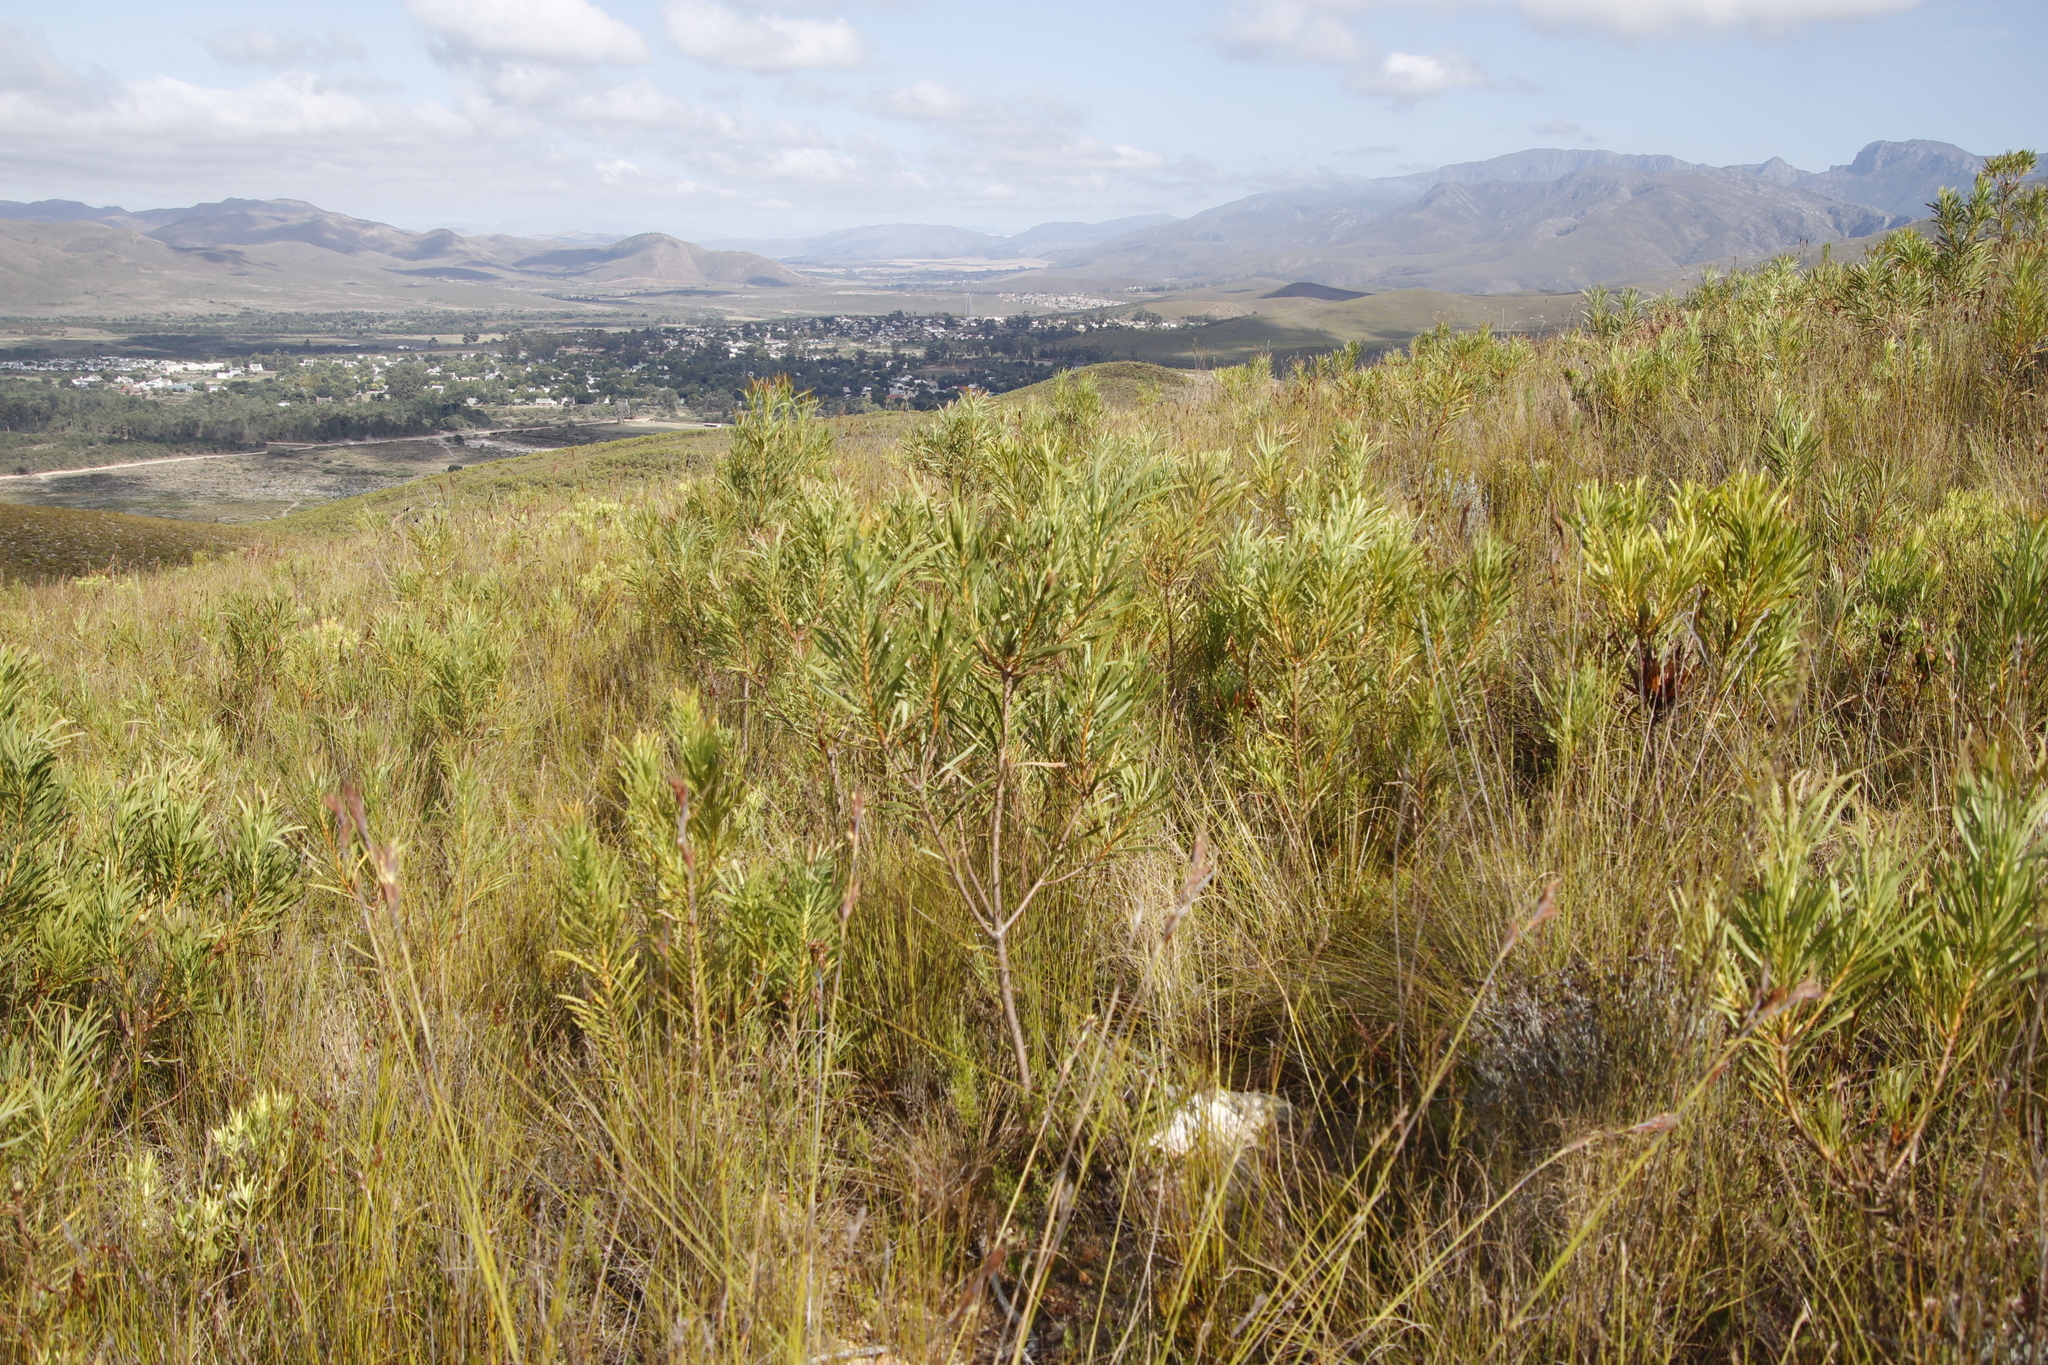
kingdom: Plantae
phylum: Tracheophyta
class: Magnoliopsida
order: Proteales
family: Proteaceae
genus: Protea
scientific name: Protea repens
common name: Sugarbush
